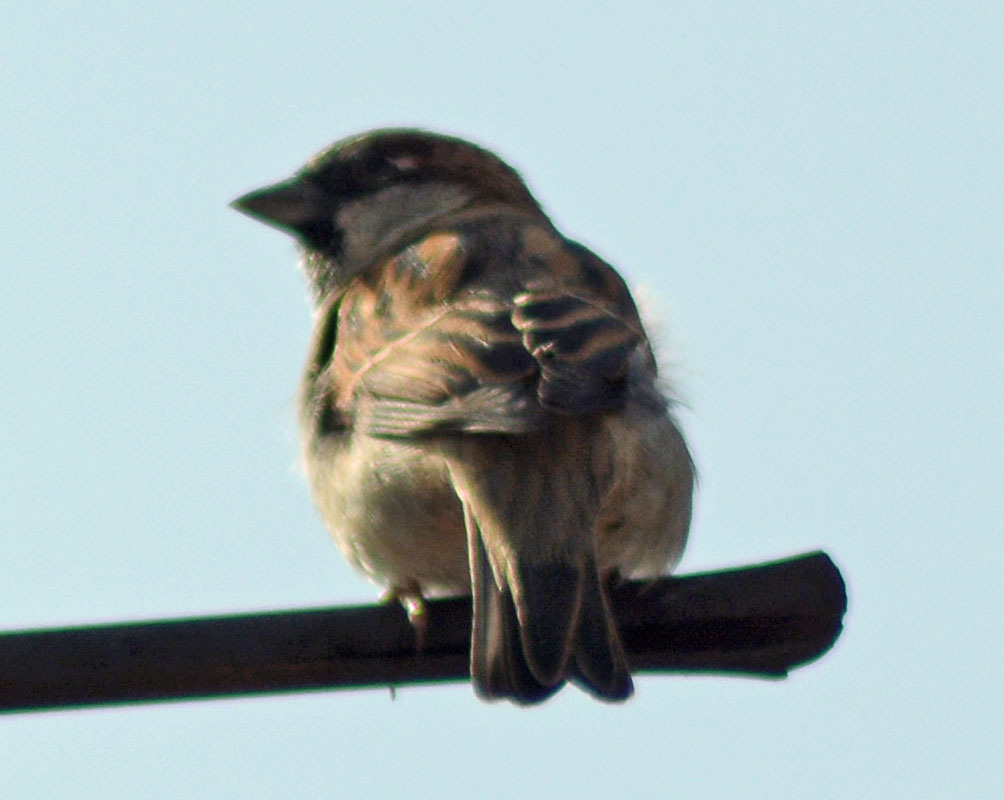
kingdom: Animalia
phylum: Chordata
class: Aves
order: Passeriformes
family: Passeridae
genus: Passer
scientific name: Passer domesticus
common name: House sparrow
